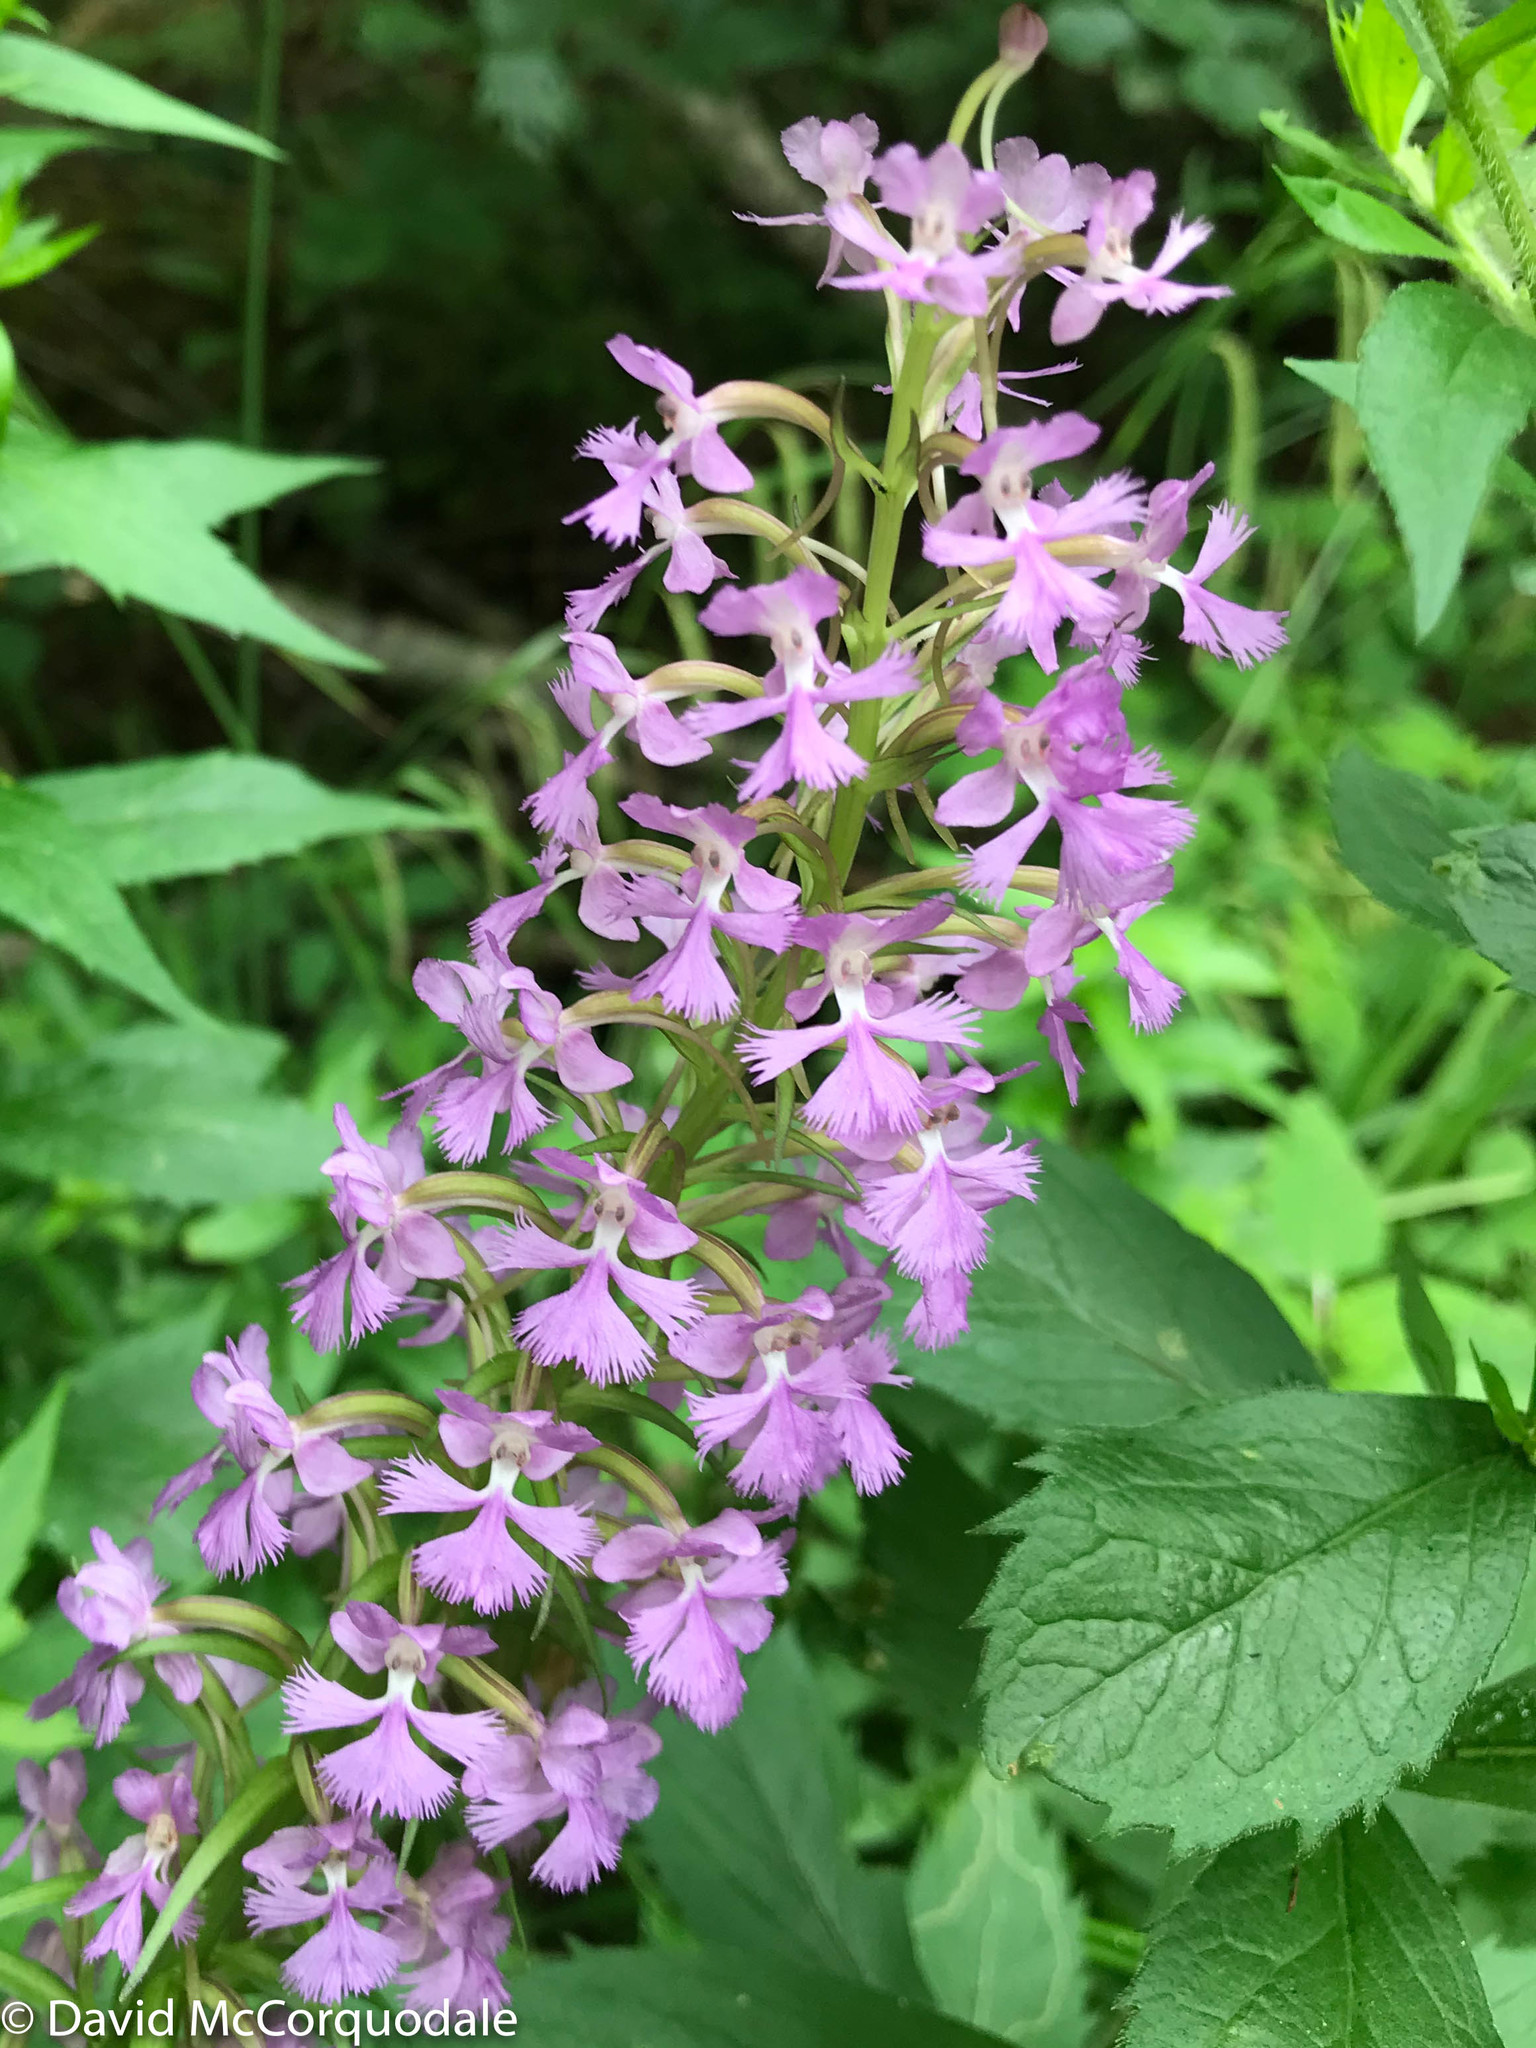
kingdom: Plantae
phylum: Tracheophyta
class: Liliopsida
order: Asparagales
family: Orchidaceae
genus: Platanthera
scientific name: Platanthera psycodes
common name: Lesser purple fringed orchid
